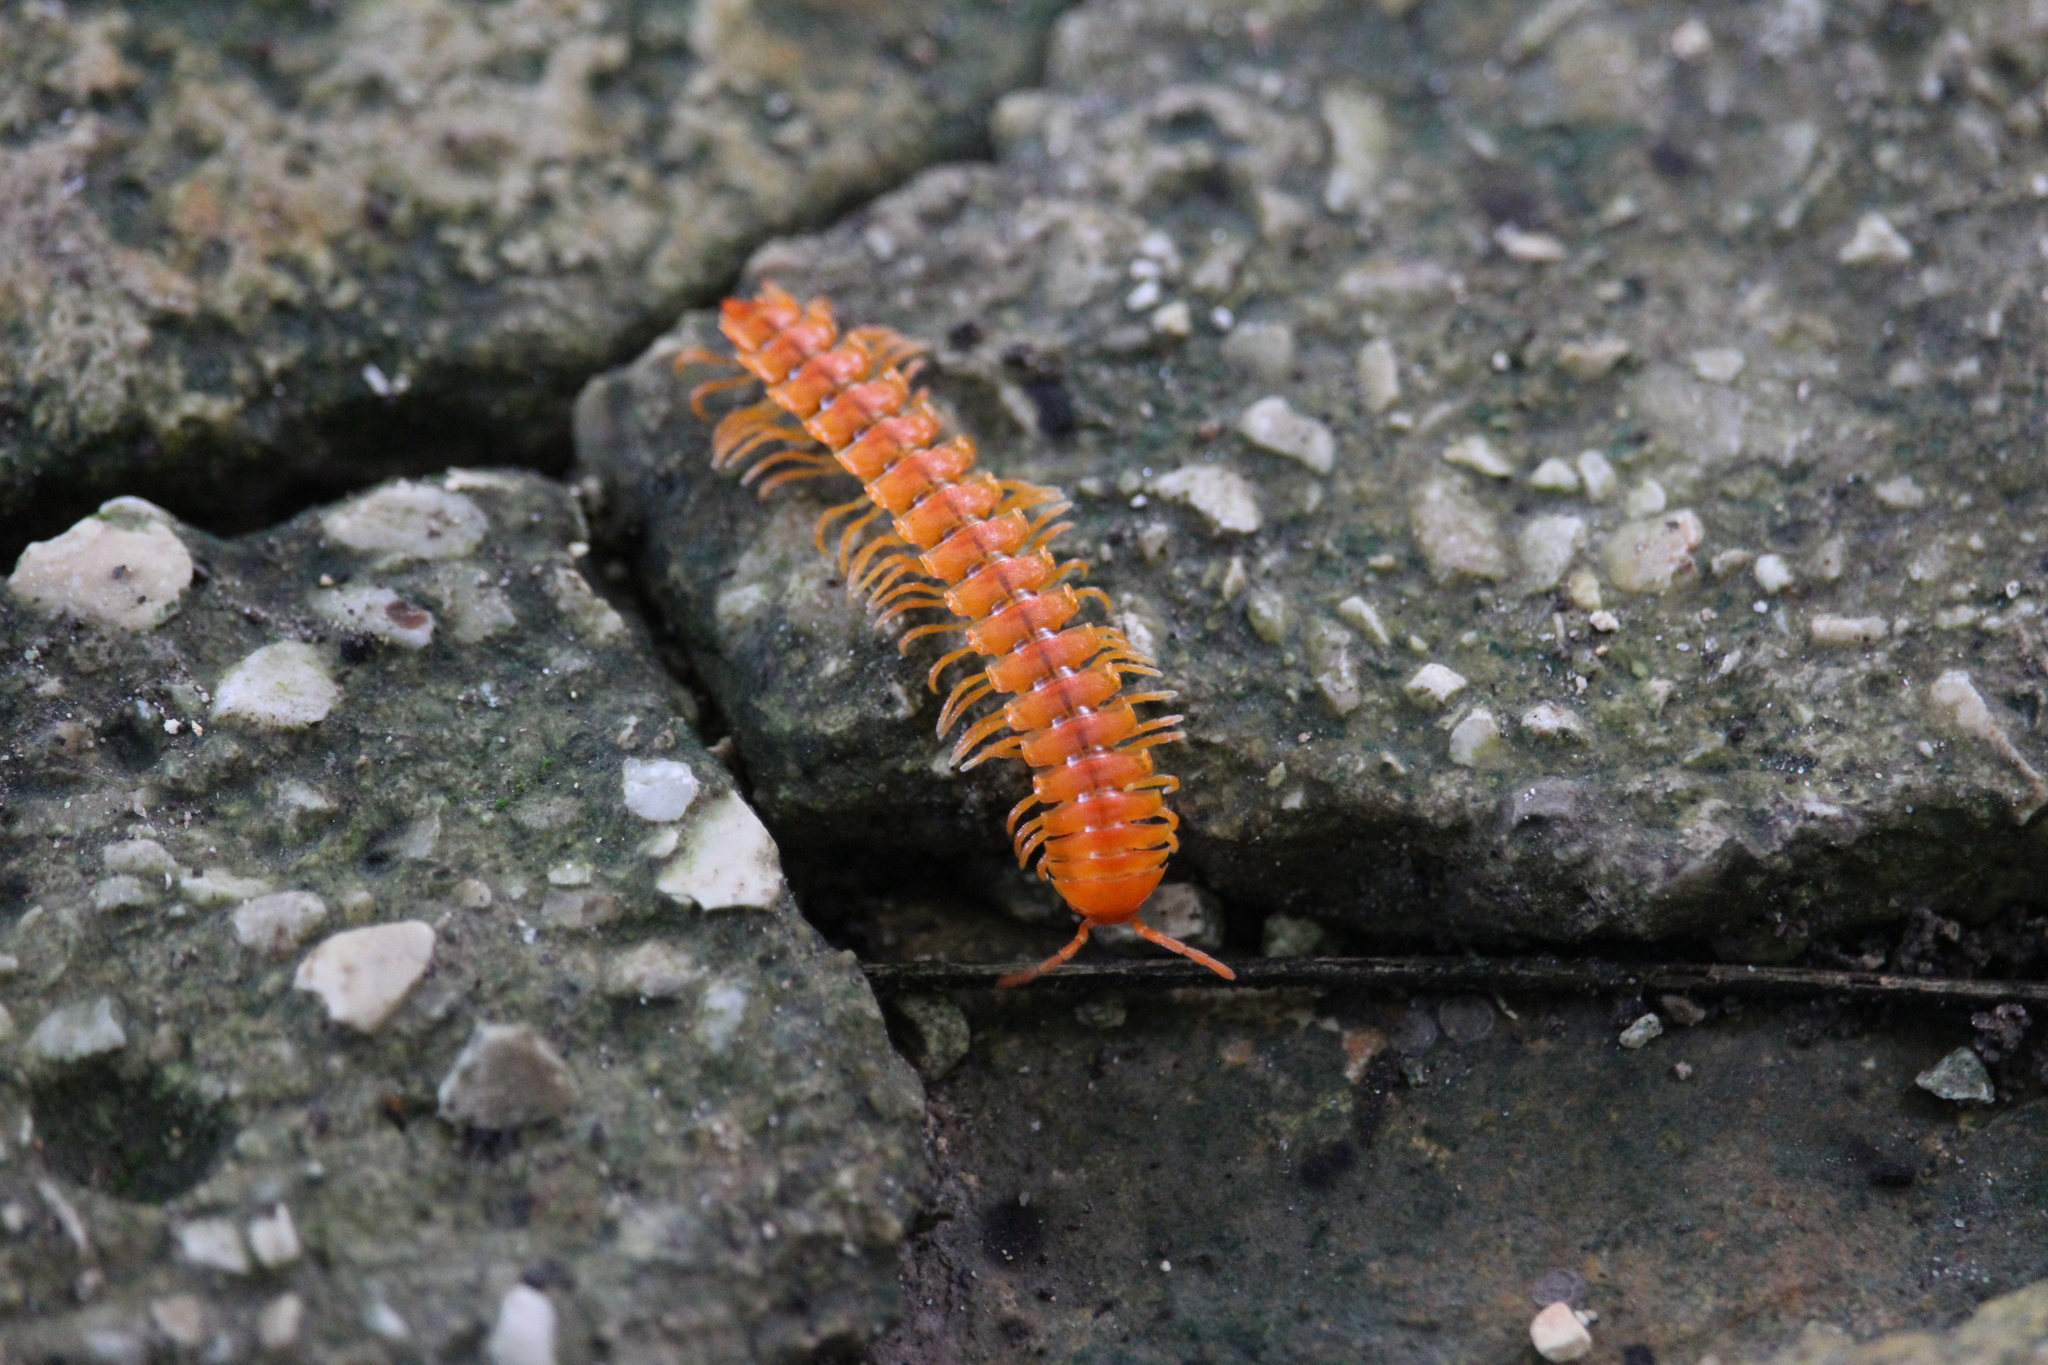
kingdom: Animalia
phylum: Arthropoda
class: Diplopoda
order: Polydesmida
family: Rhachodesmidae
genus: Aceratophallus
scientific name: Aceratophallus maya
